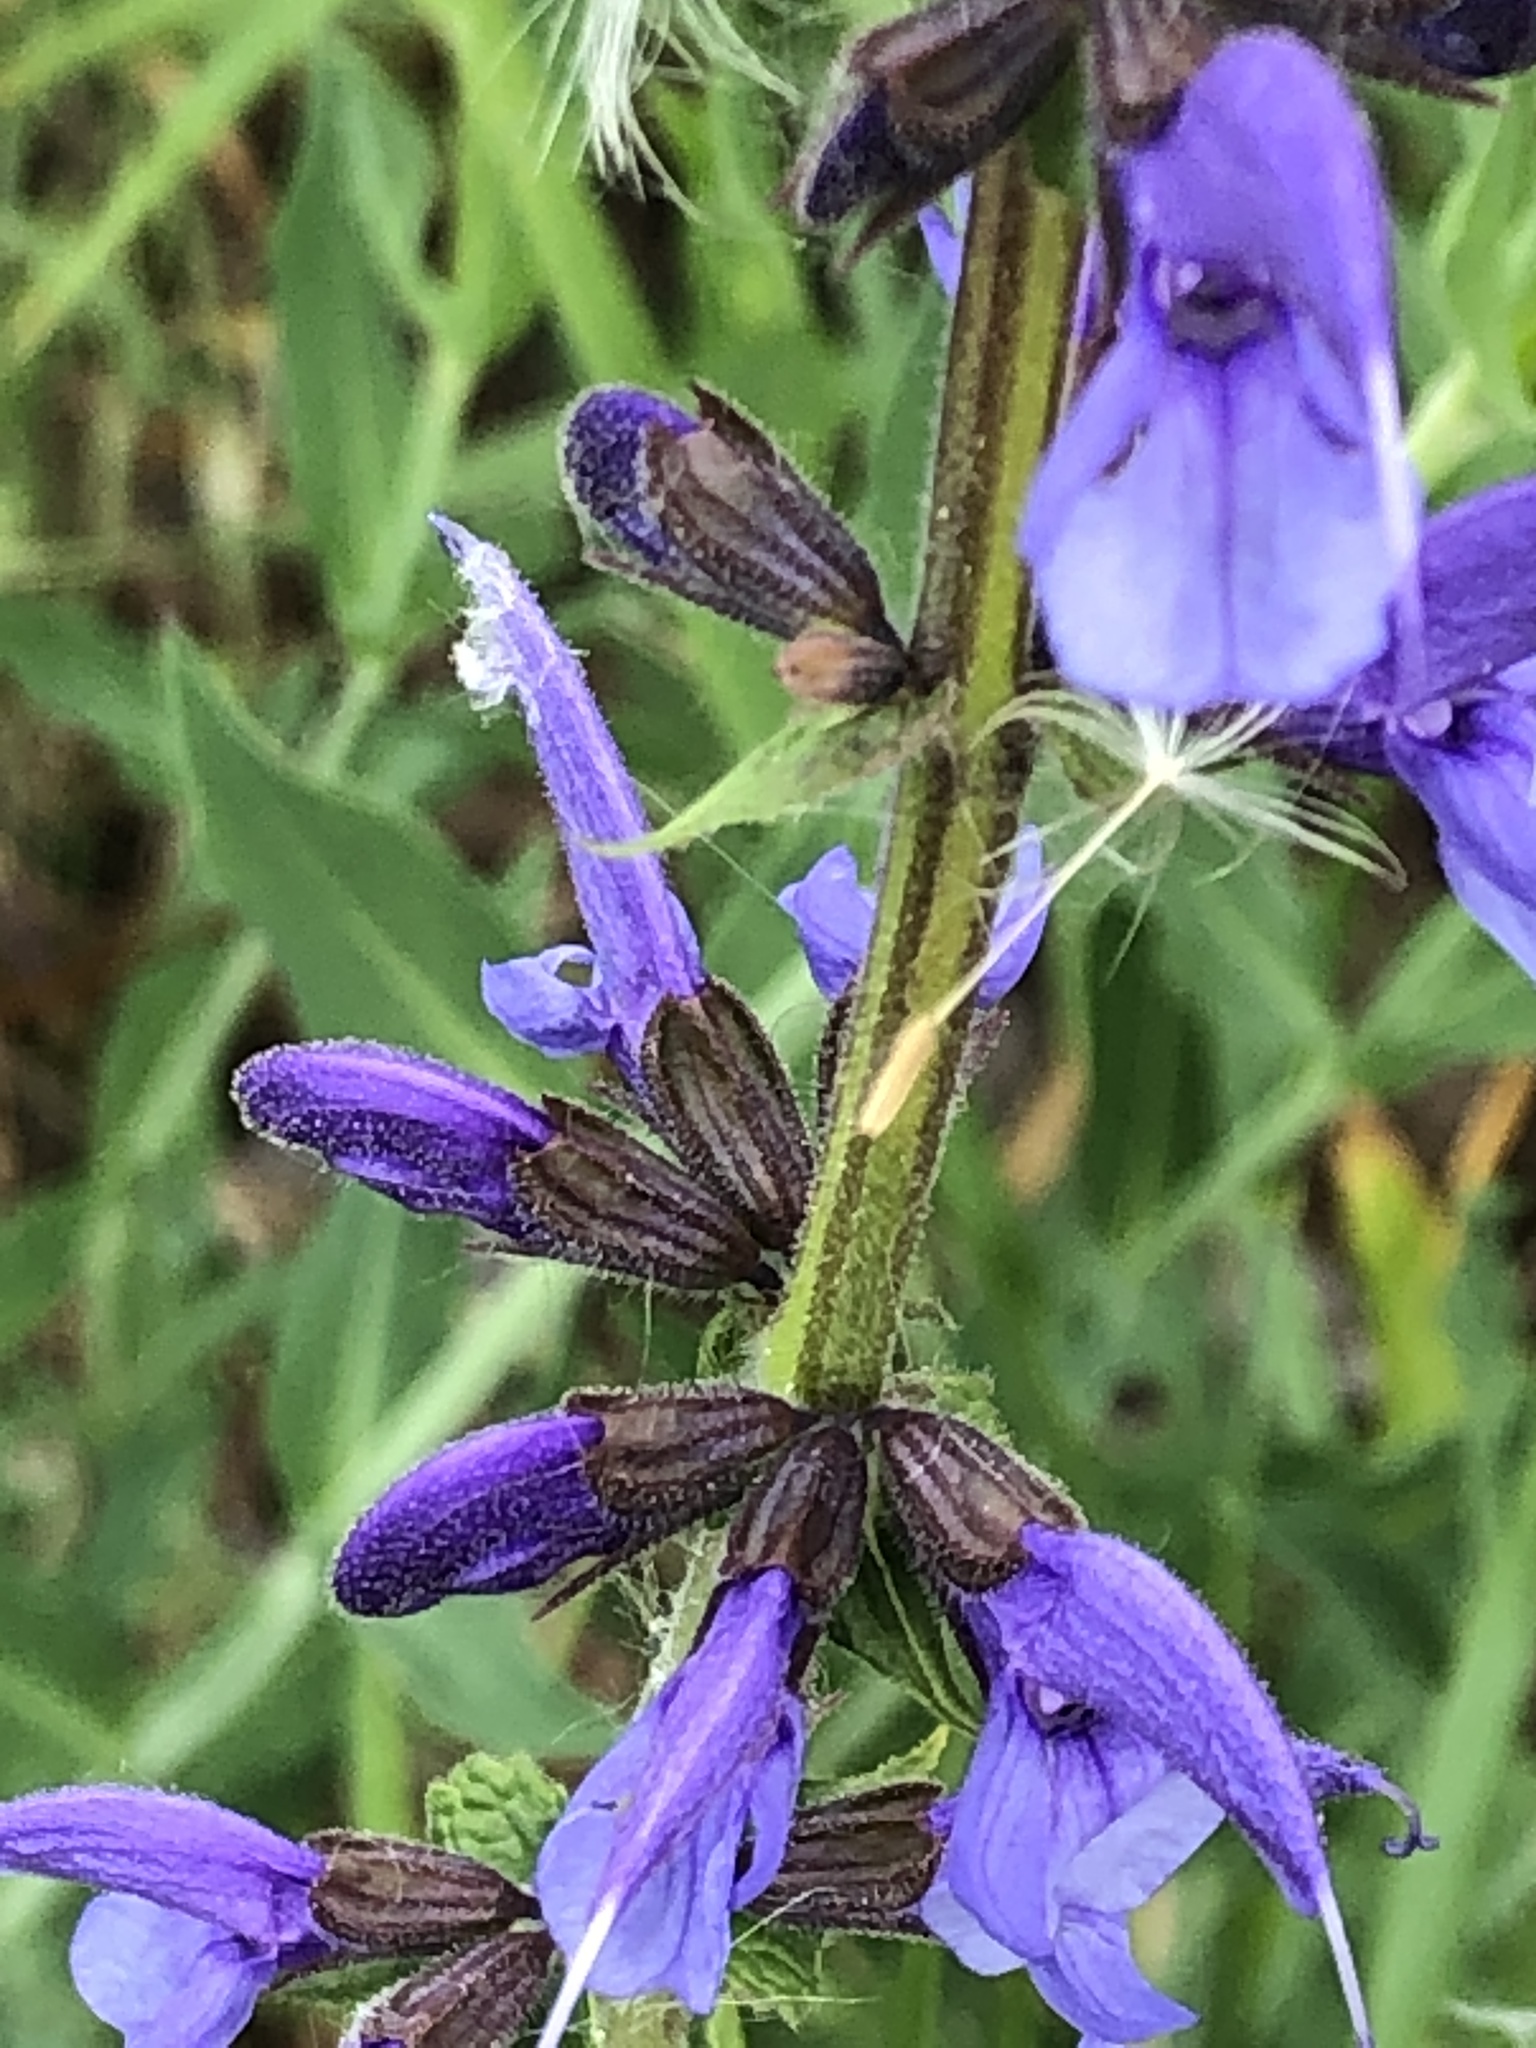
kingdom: Plantae
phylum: Tracheophyta
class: Magnoliopsida
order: Lamiales
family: Lamiaceae
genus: Salvia
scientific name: Salvia pratensis
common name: Meadow sage
